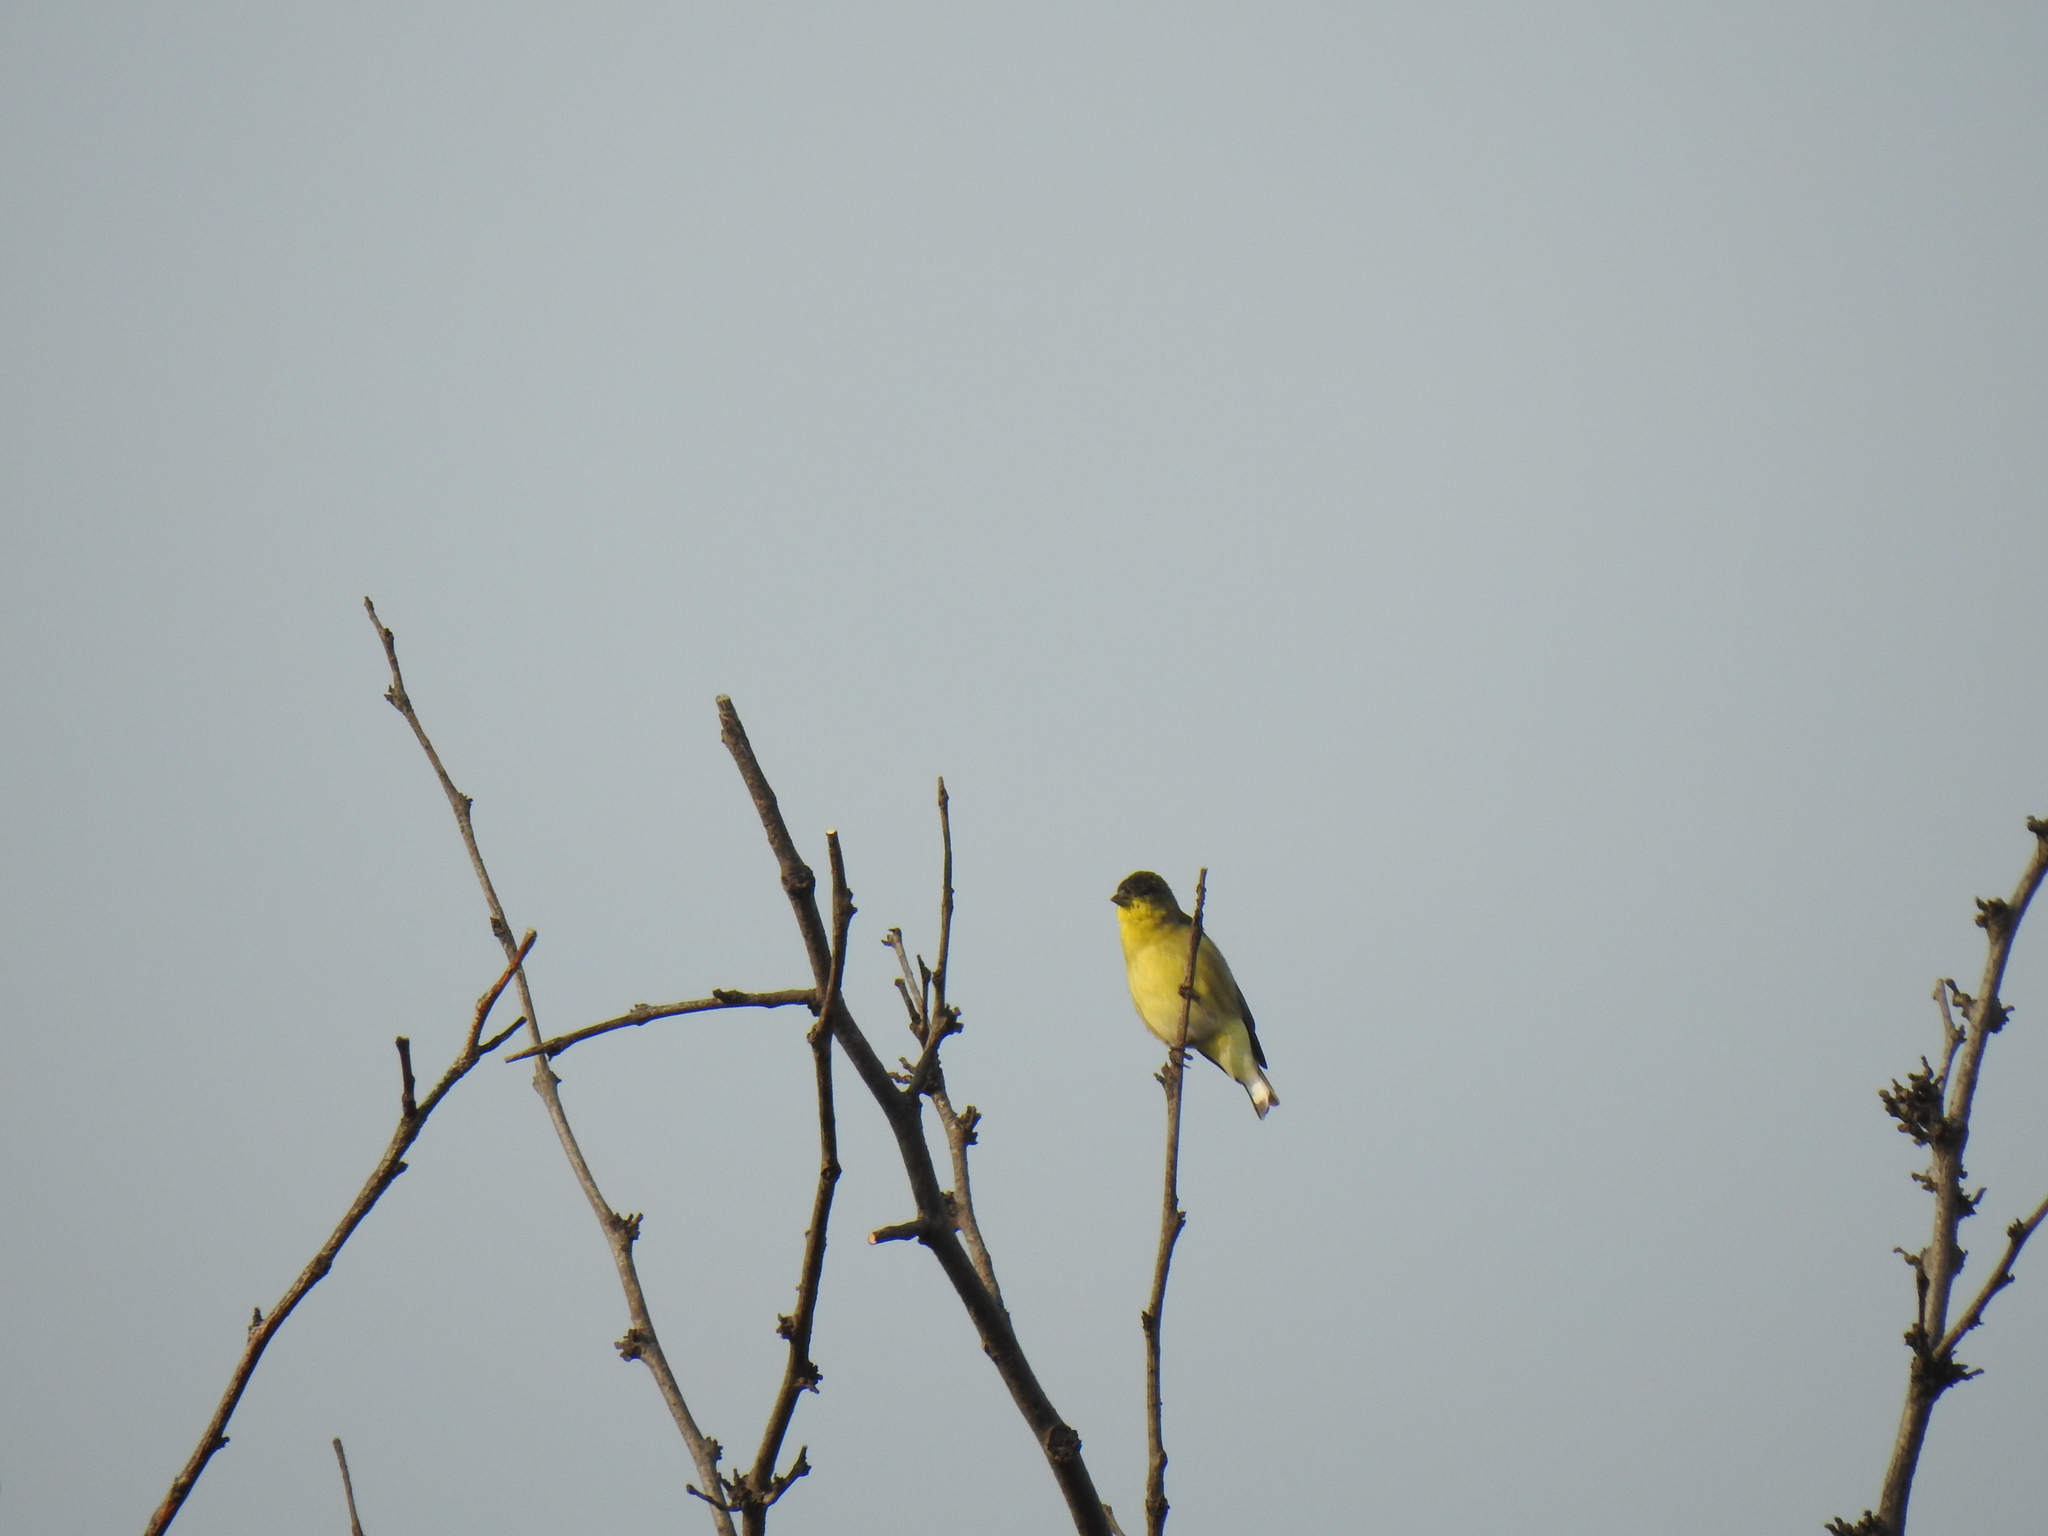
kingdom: Animalia
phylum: Chordata
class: Aves
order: Passeriformes
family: Fringillidae
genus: Spinus
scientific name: Spinus psaltria
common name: Lesser goldfinch
